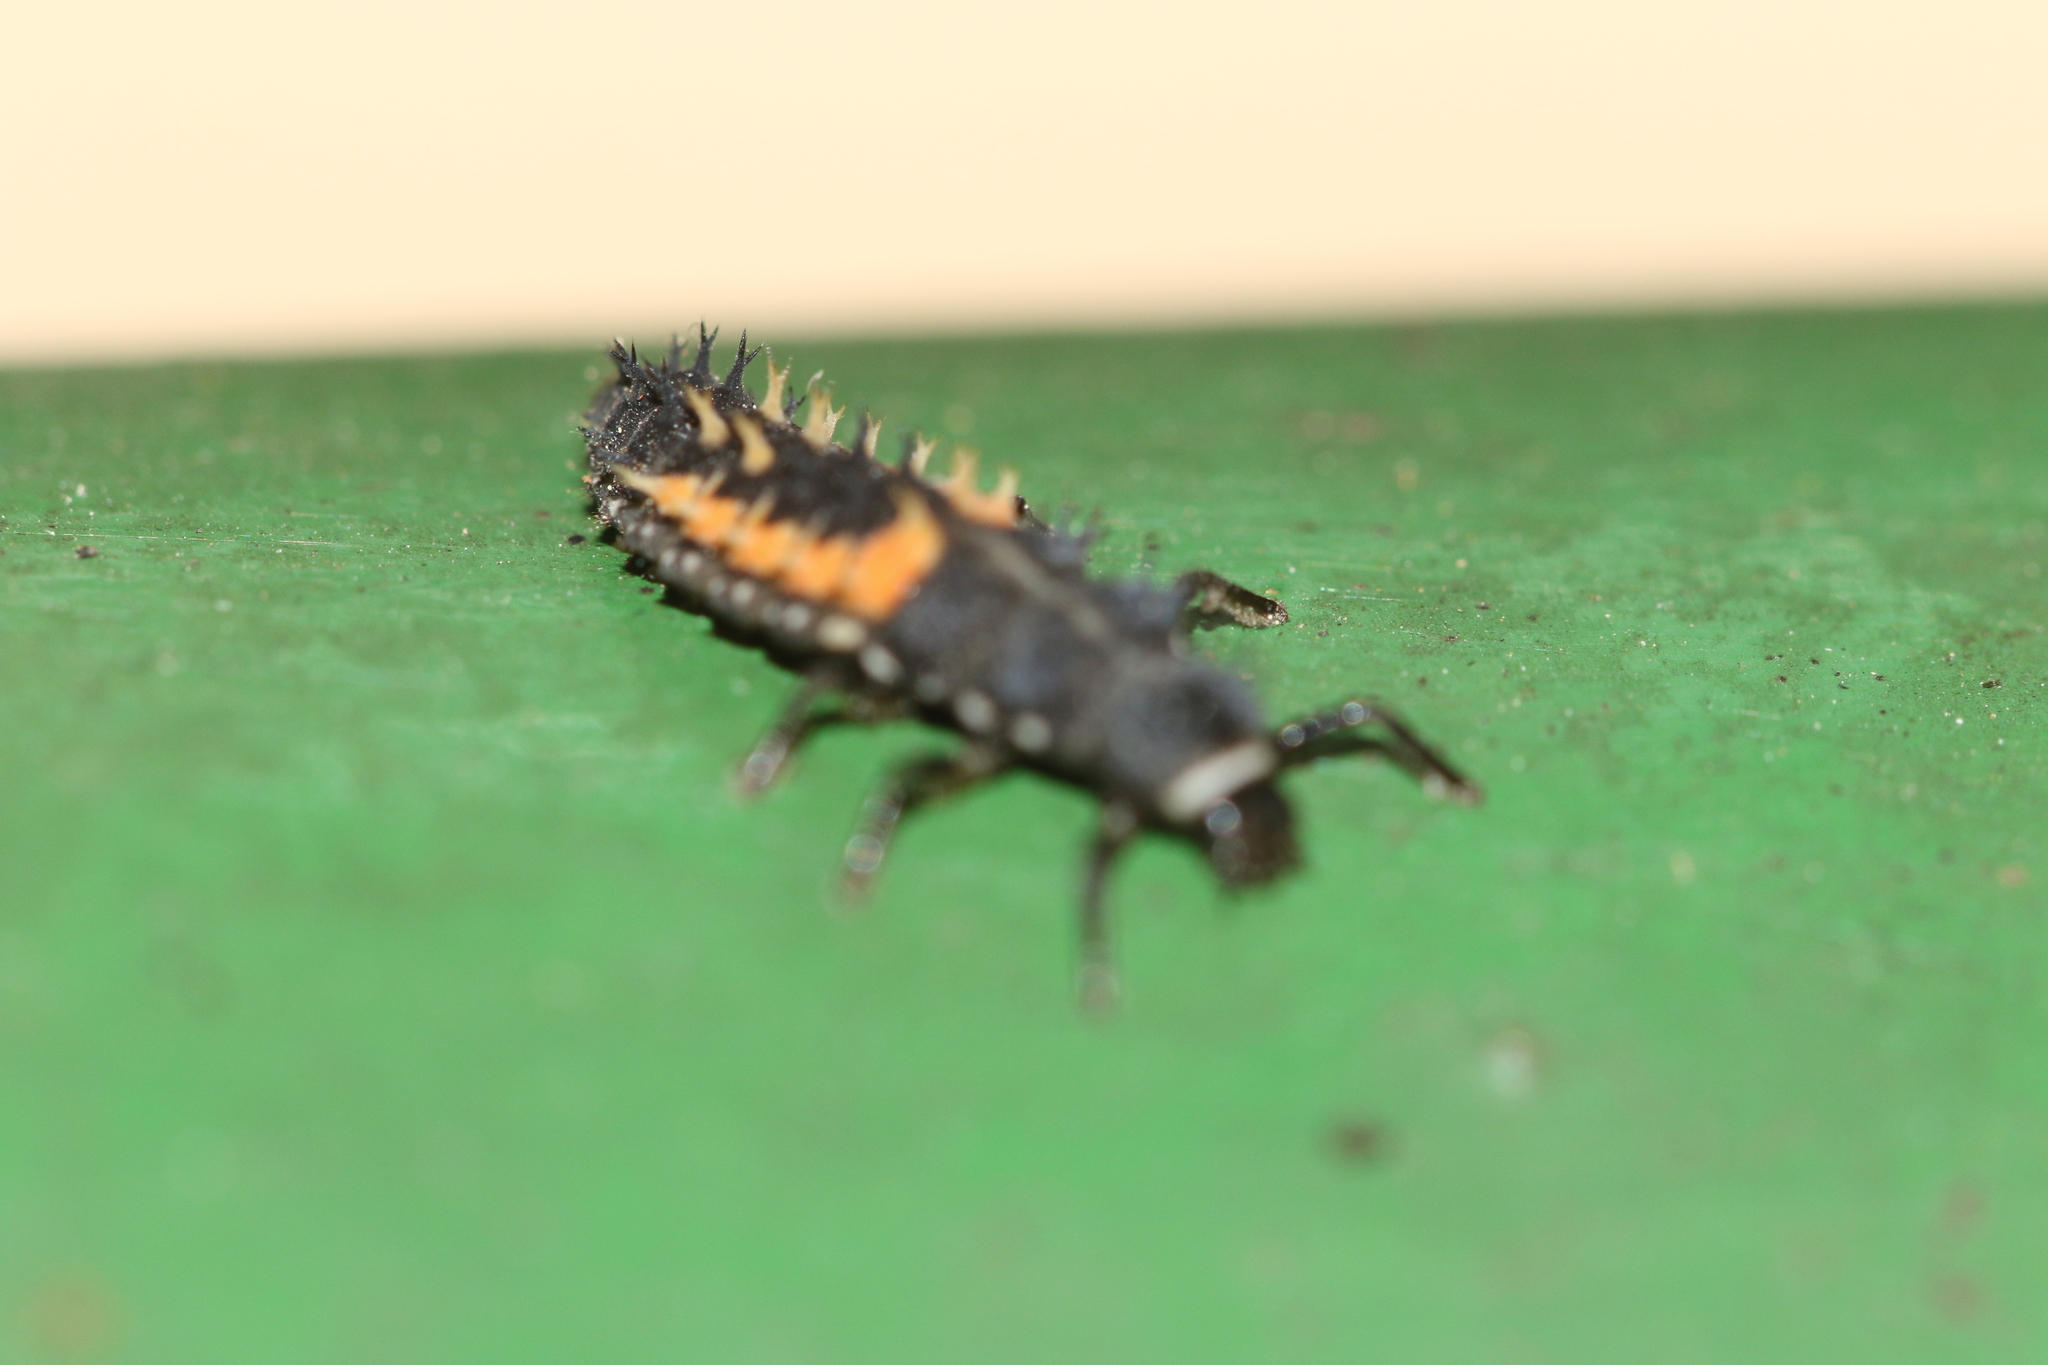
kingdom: Animalia
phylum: Arthropoda
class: Insecta
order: Coleoptera
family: Coccinellidae
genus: Harmonia
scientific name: Harmonia axyridis
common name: Harlequin ladybird
